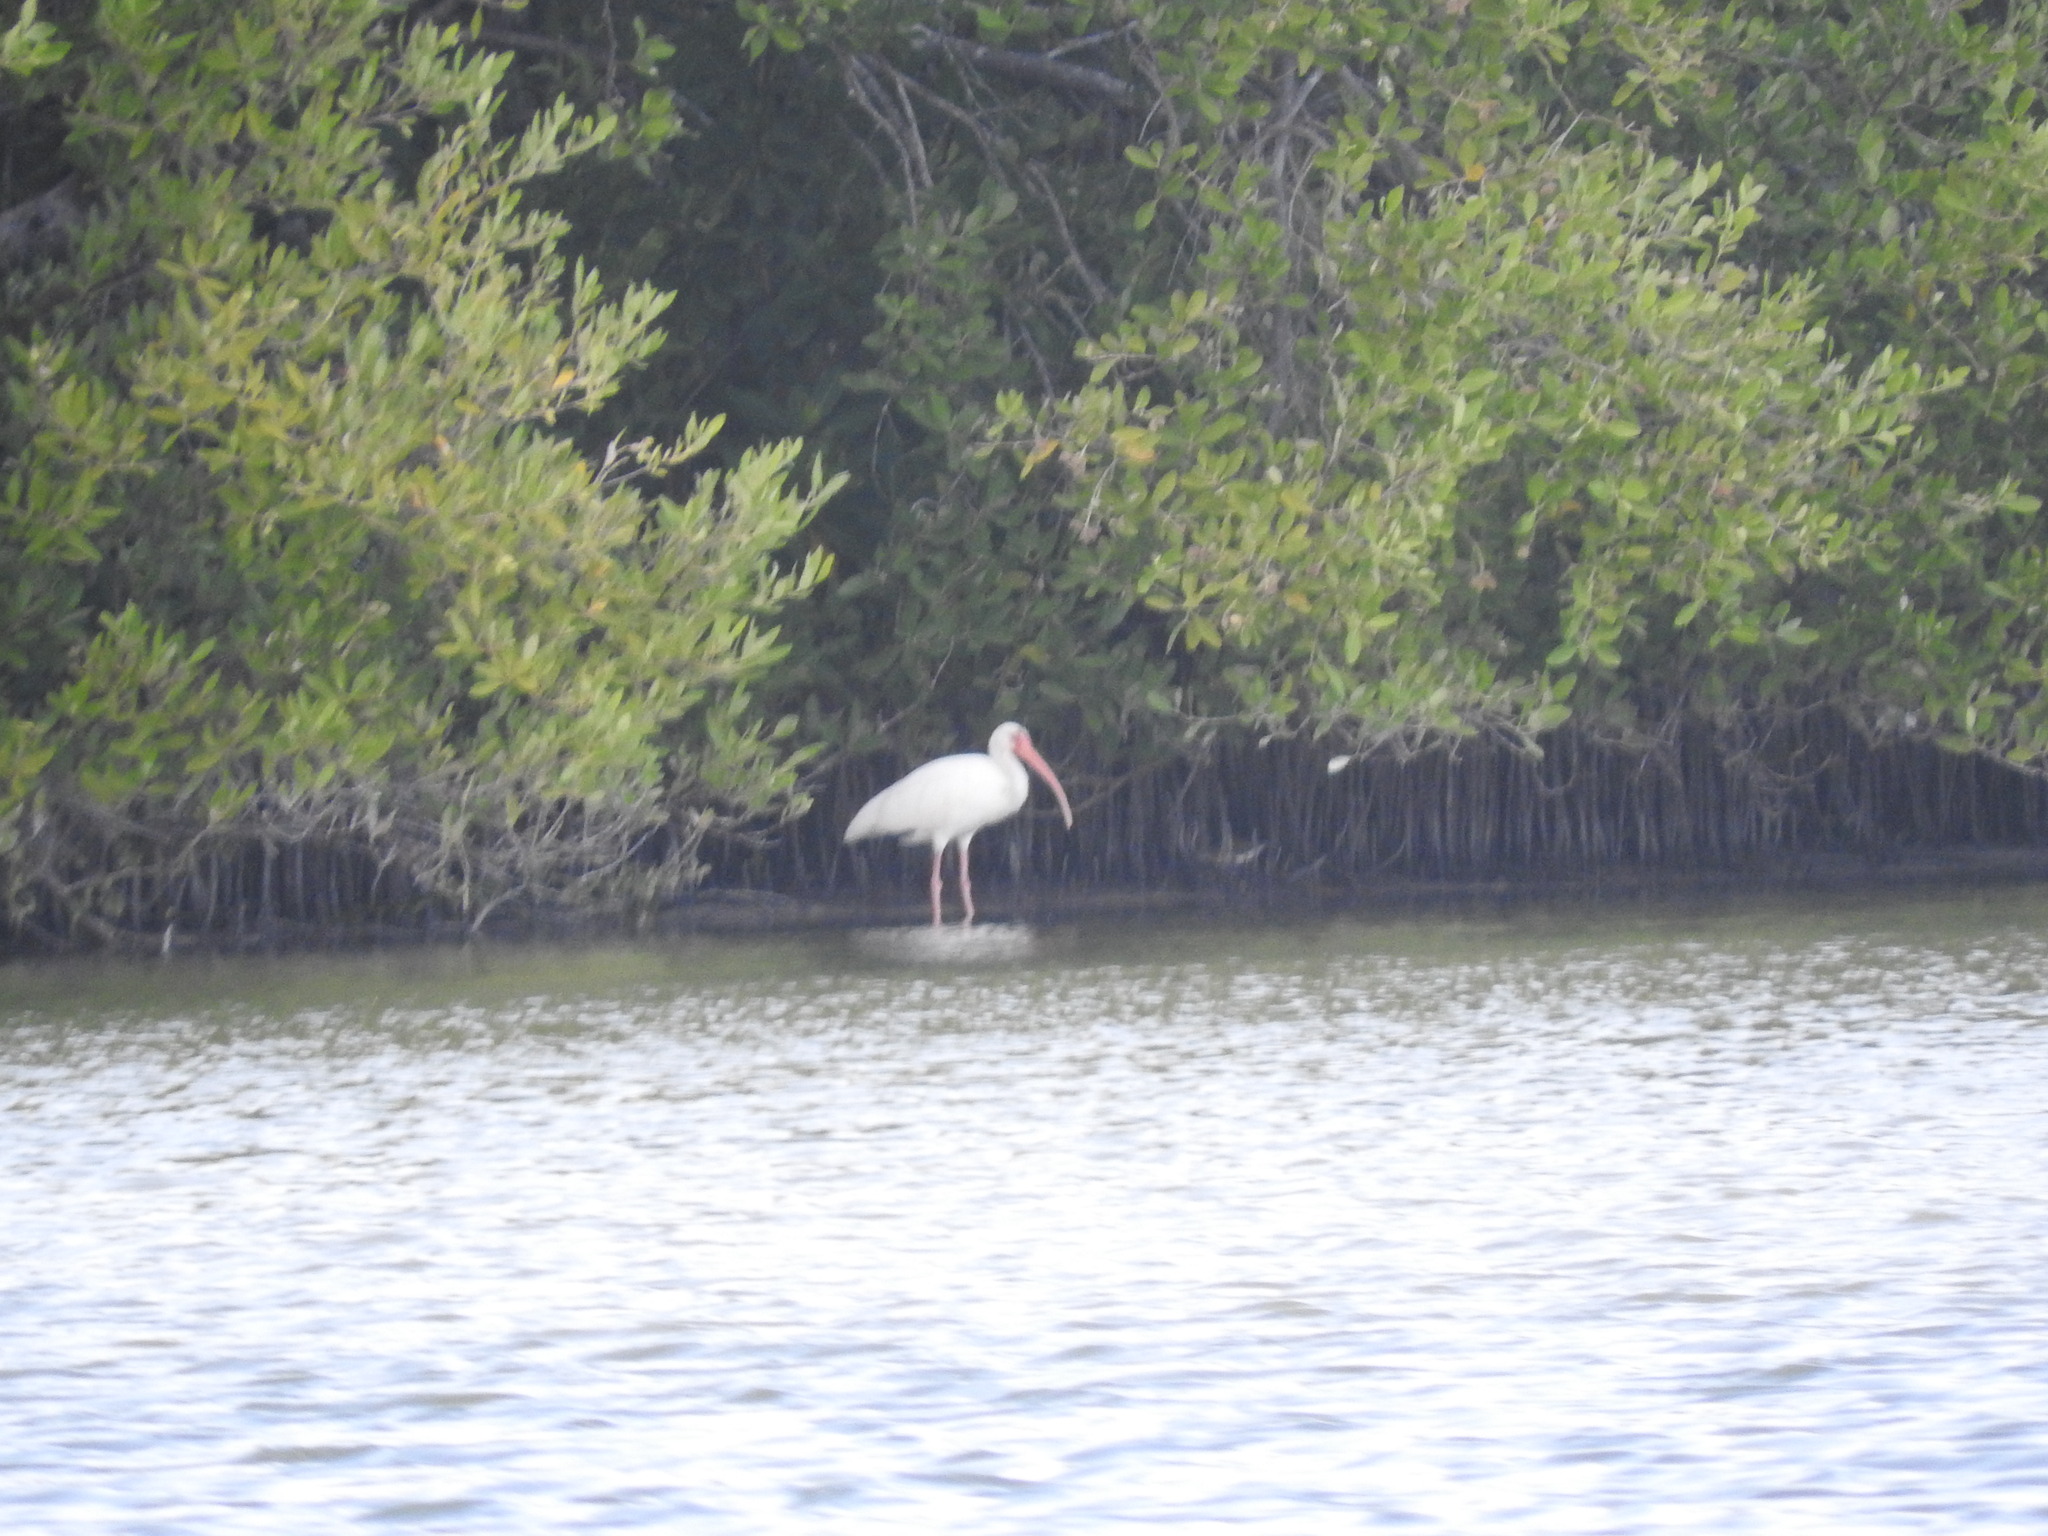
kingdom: Animalia
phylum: Chordata
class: Aves
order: Pelecaniformes
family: Threskiornithidae
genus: Eudocimus
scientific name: Eudocimus albus
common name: White ibis
